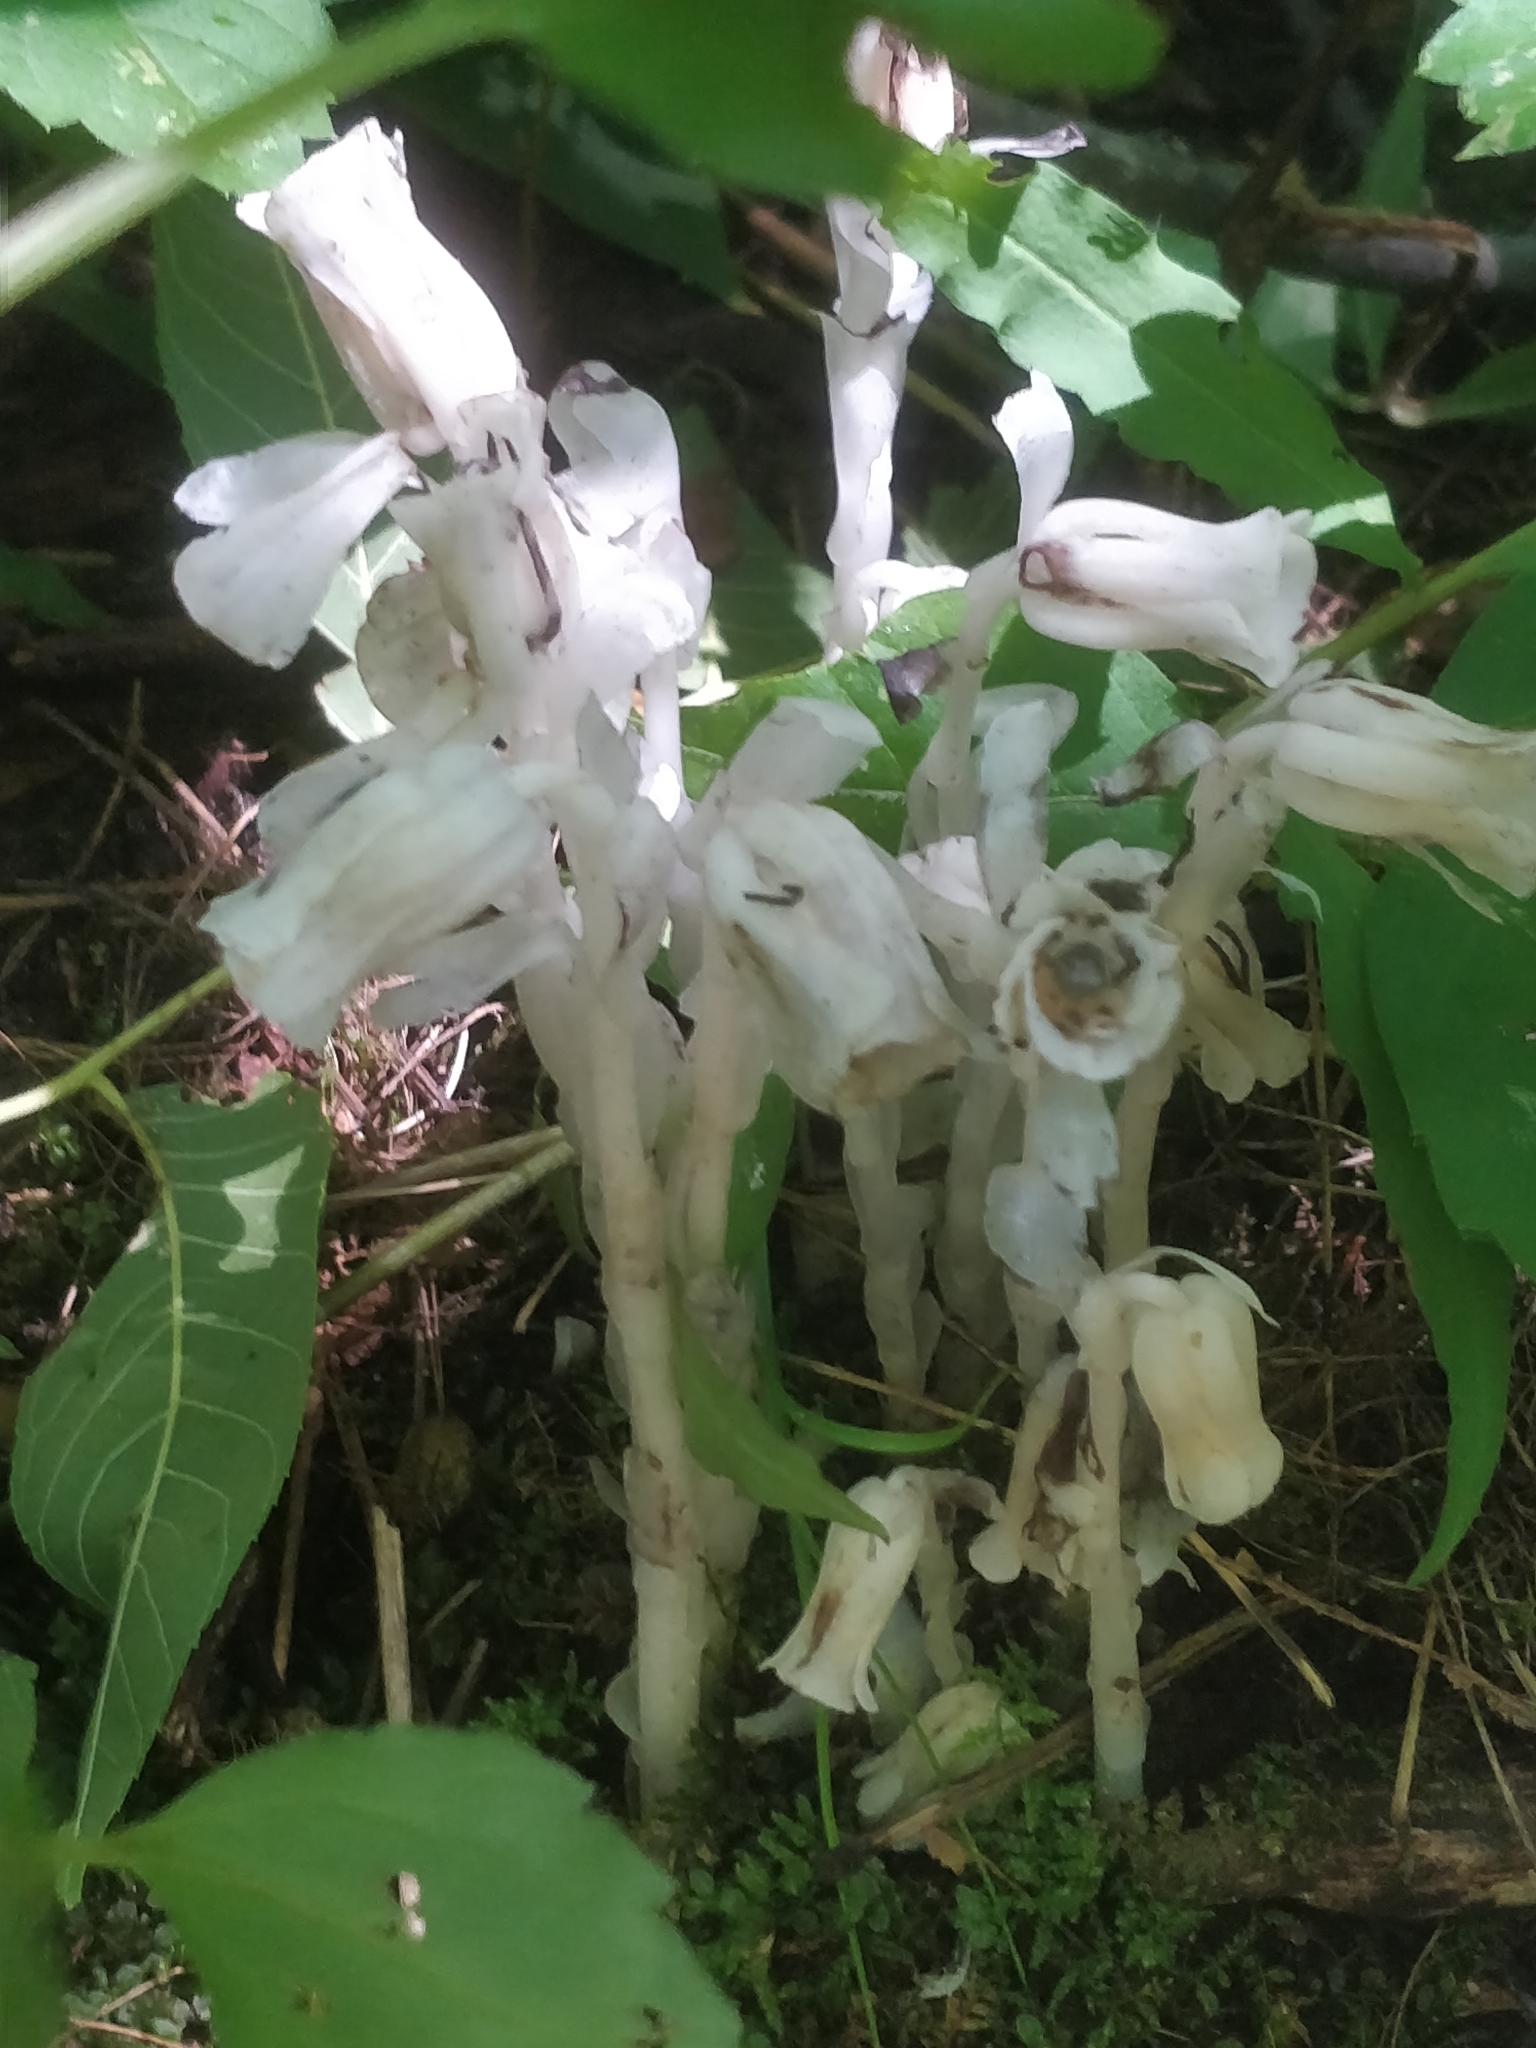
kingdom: Plantae
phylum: Tracheophyta
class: Magnoliopsida
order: Ericales
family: Ericaceae
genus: Monotropa
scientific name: Monotropa uniflora
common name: Convulsion root
